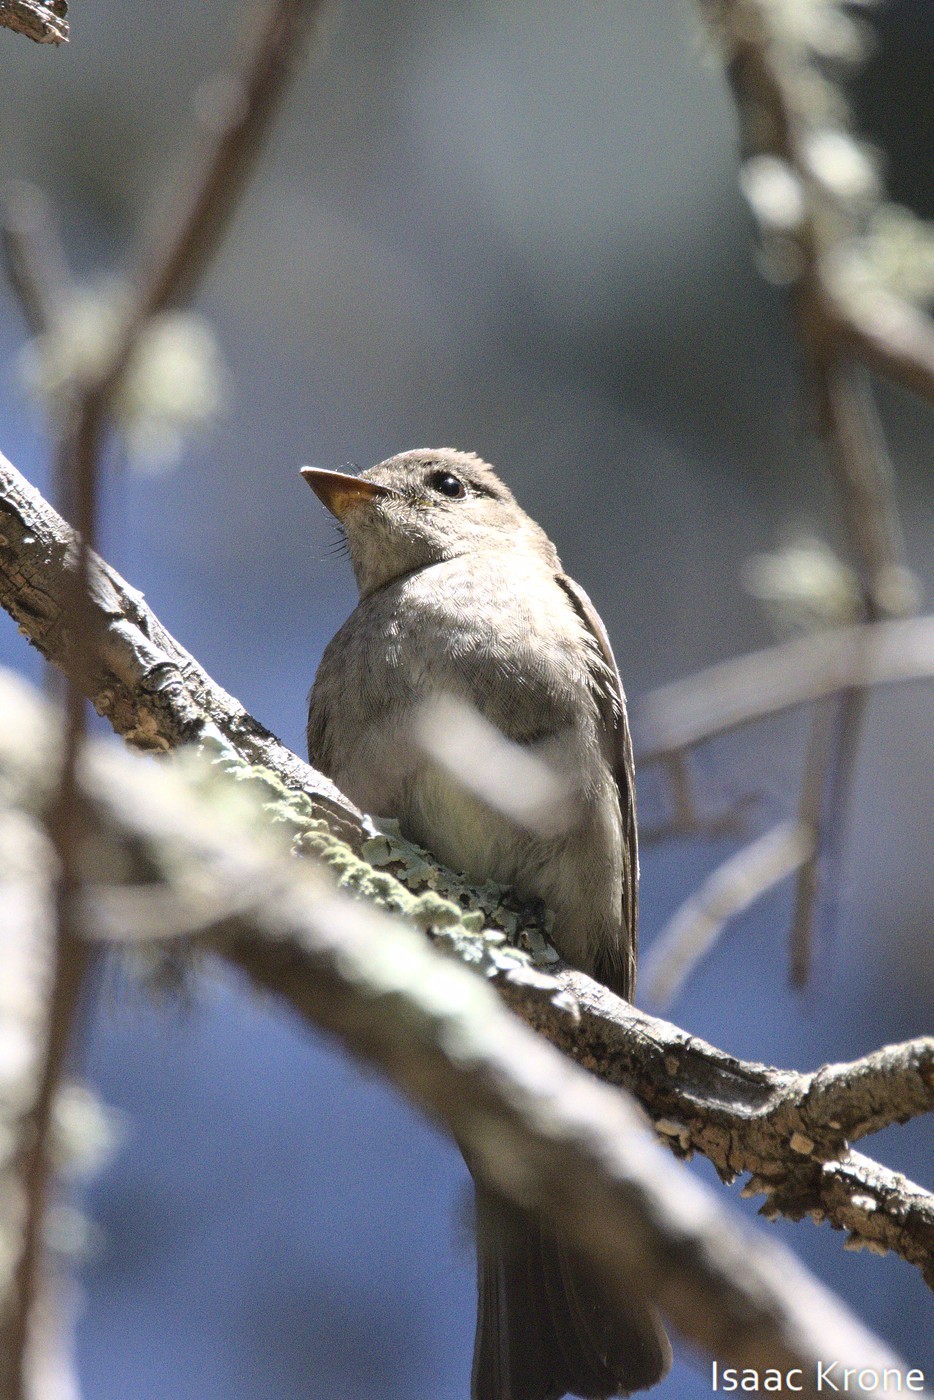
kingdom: Animalia
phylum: Chordata
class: Aves
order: Passeriformes
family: Tyrannidae
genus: Contopus
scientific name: Contopus sordidulus
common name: Western wood-pewee
